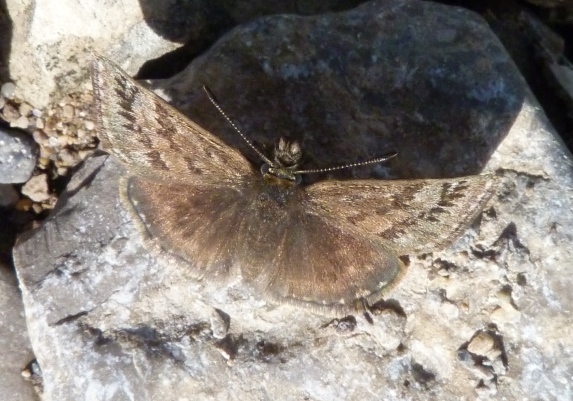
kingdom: Animalia
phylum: Arthropoda
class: Insecta
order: Lepidoptera
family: Hesperiidae
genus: Erynnis
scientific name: Erynnis tages
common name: Dingy skipper
